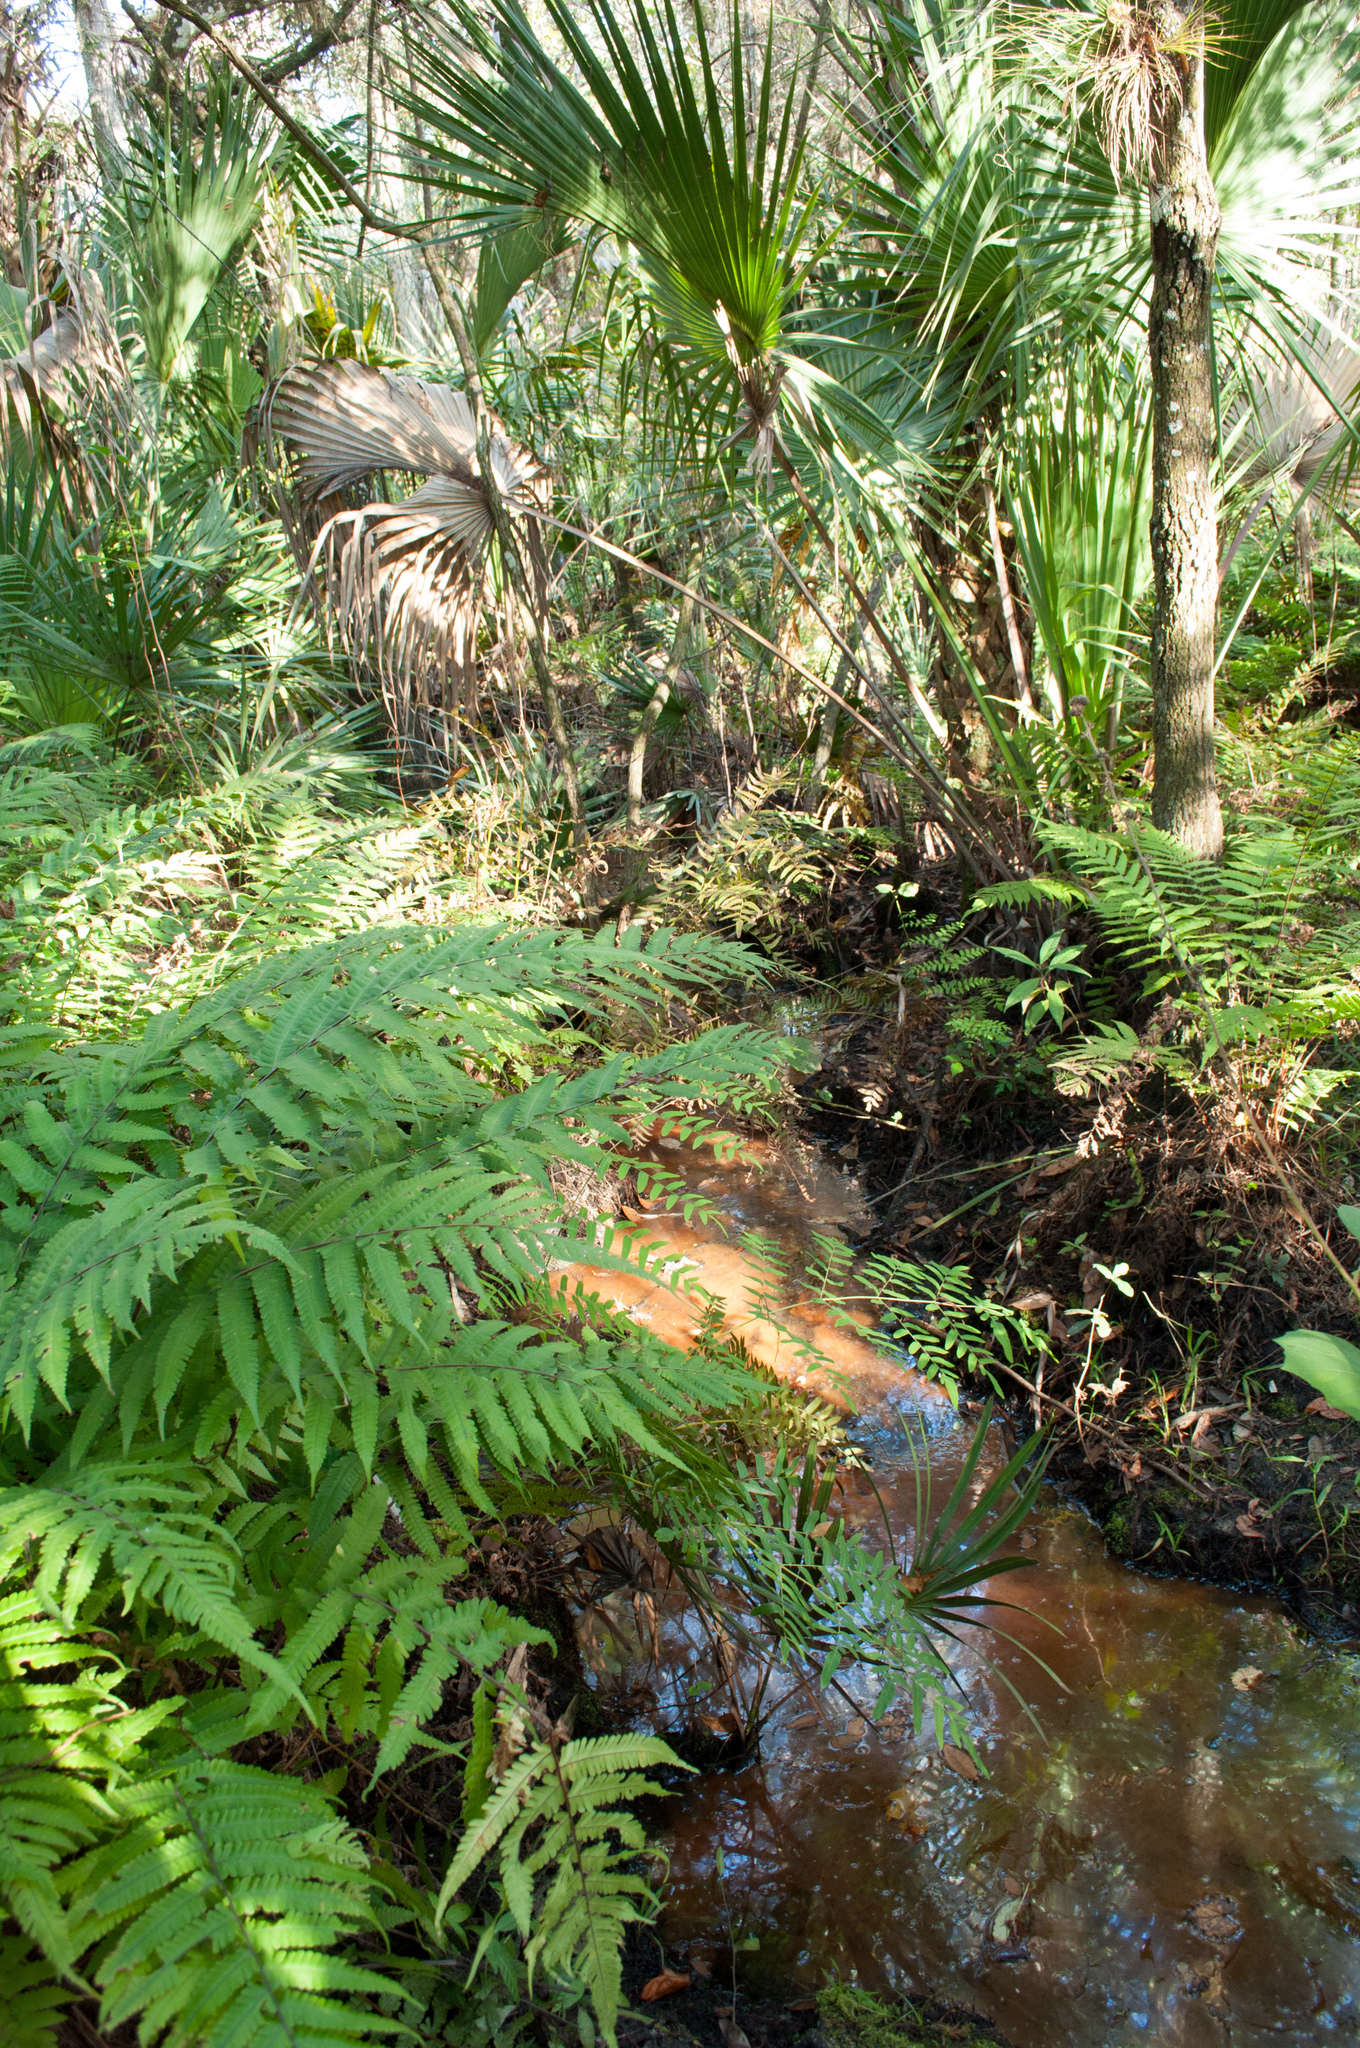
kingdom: Plantae
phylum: Tracheophyta
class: Polypodiopsida
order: Polypodiales
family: Thelypteridaceae
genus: Pelazoneuron
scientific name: Pelazoneuron kunthii
